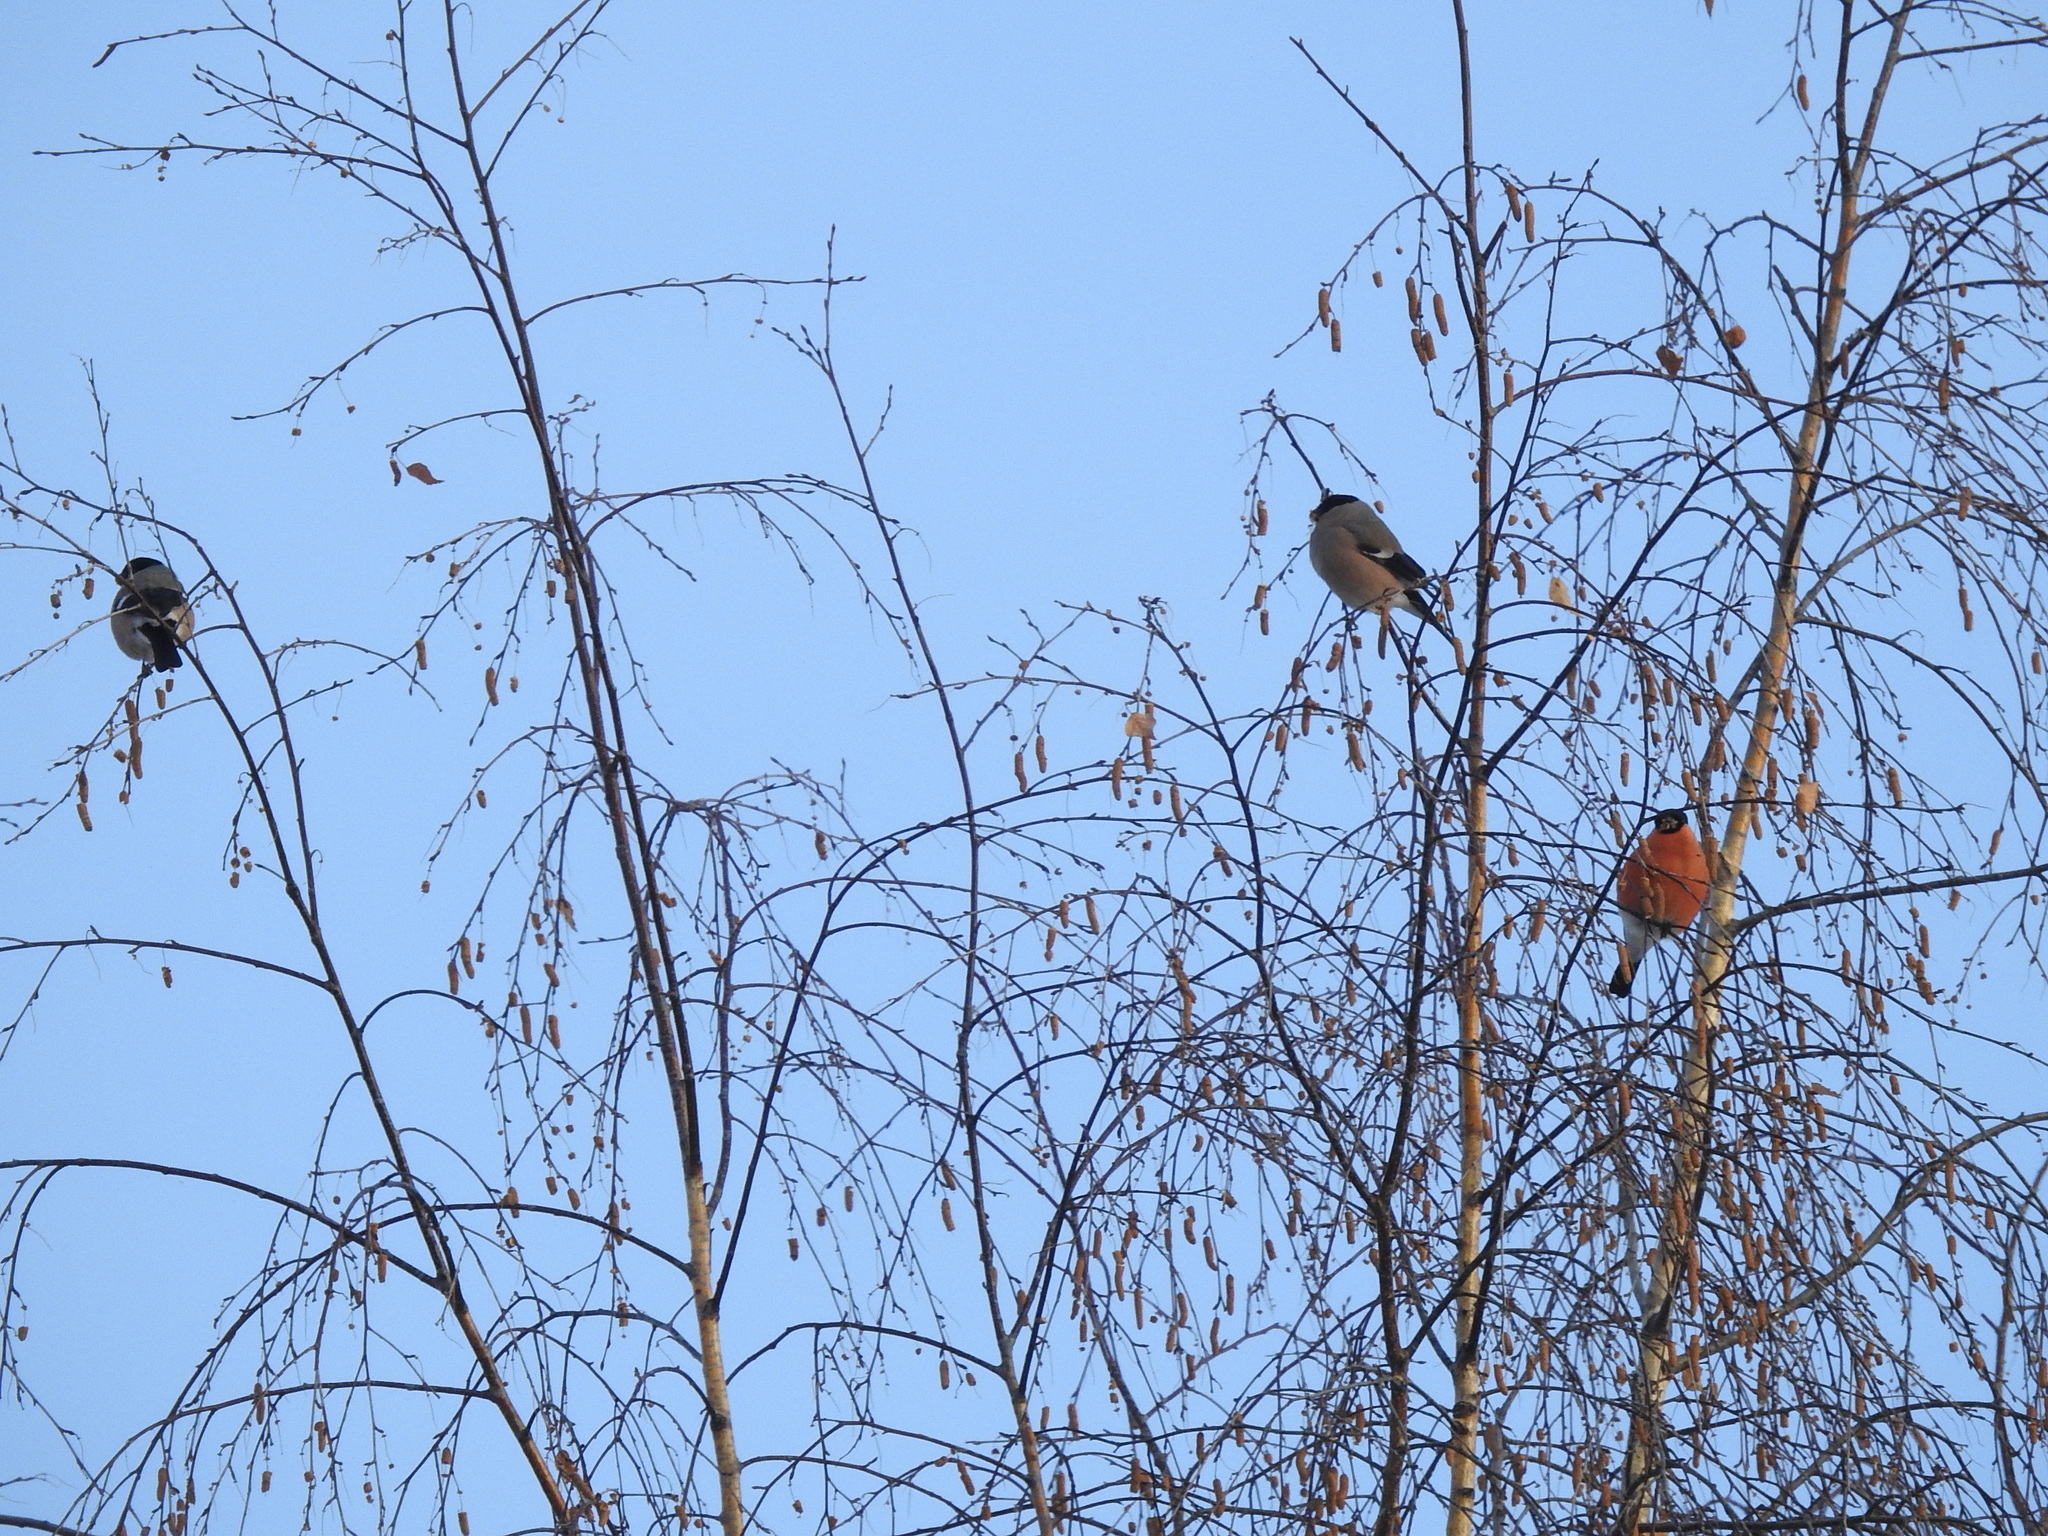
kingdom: Animalia
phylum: Chordata
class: Aves
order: Passeriformes
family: Fringillidae
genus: Pyrrhula
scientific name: Pyrrhula pyrrhula
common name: Eurasian bullfinch
